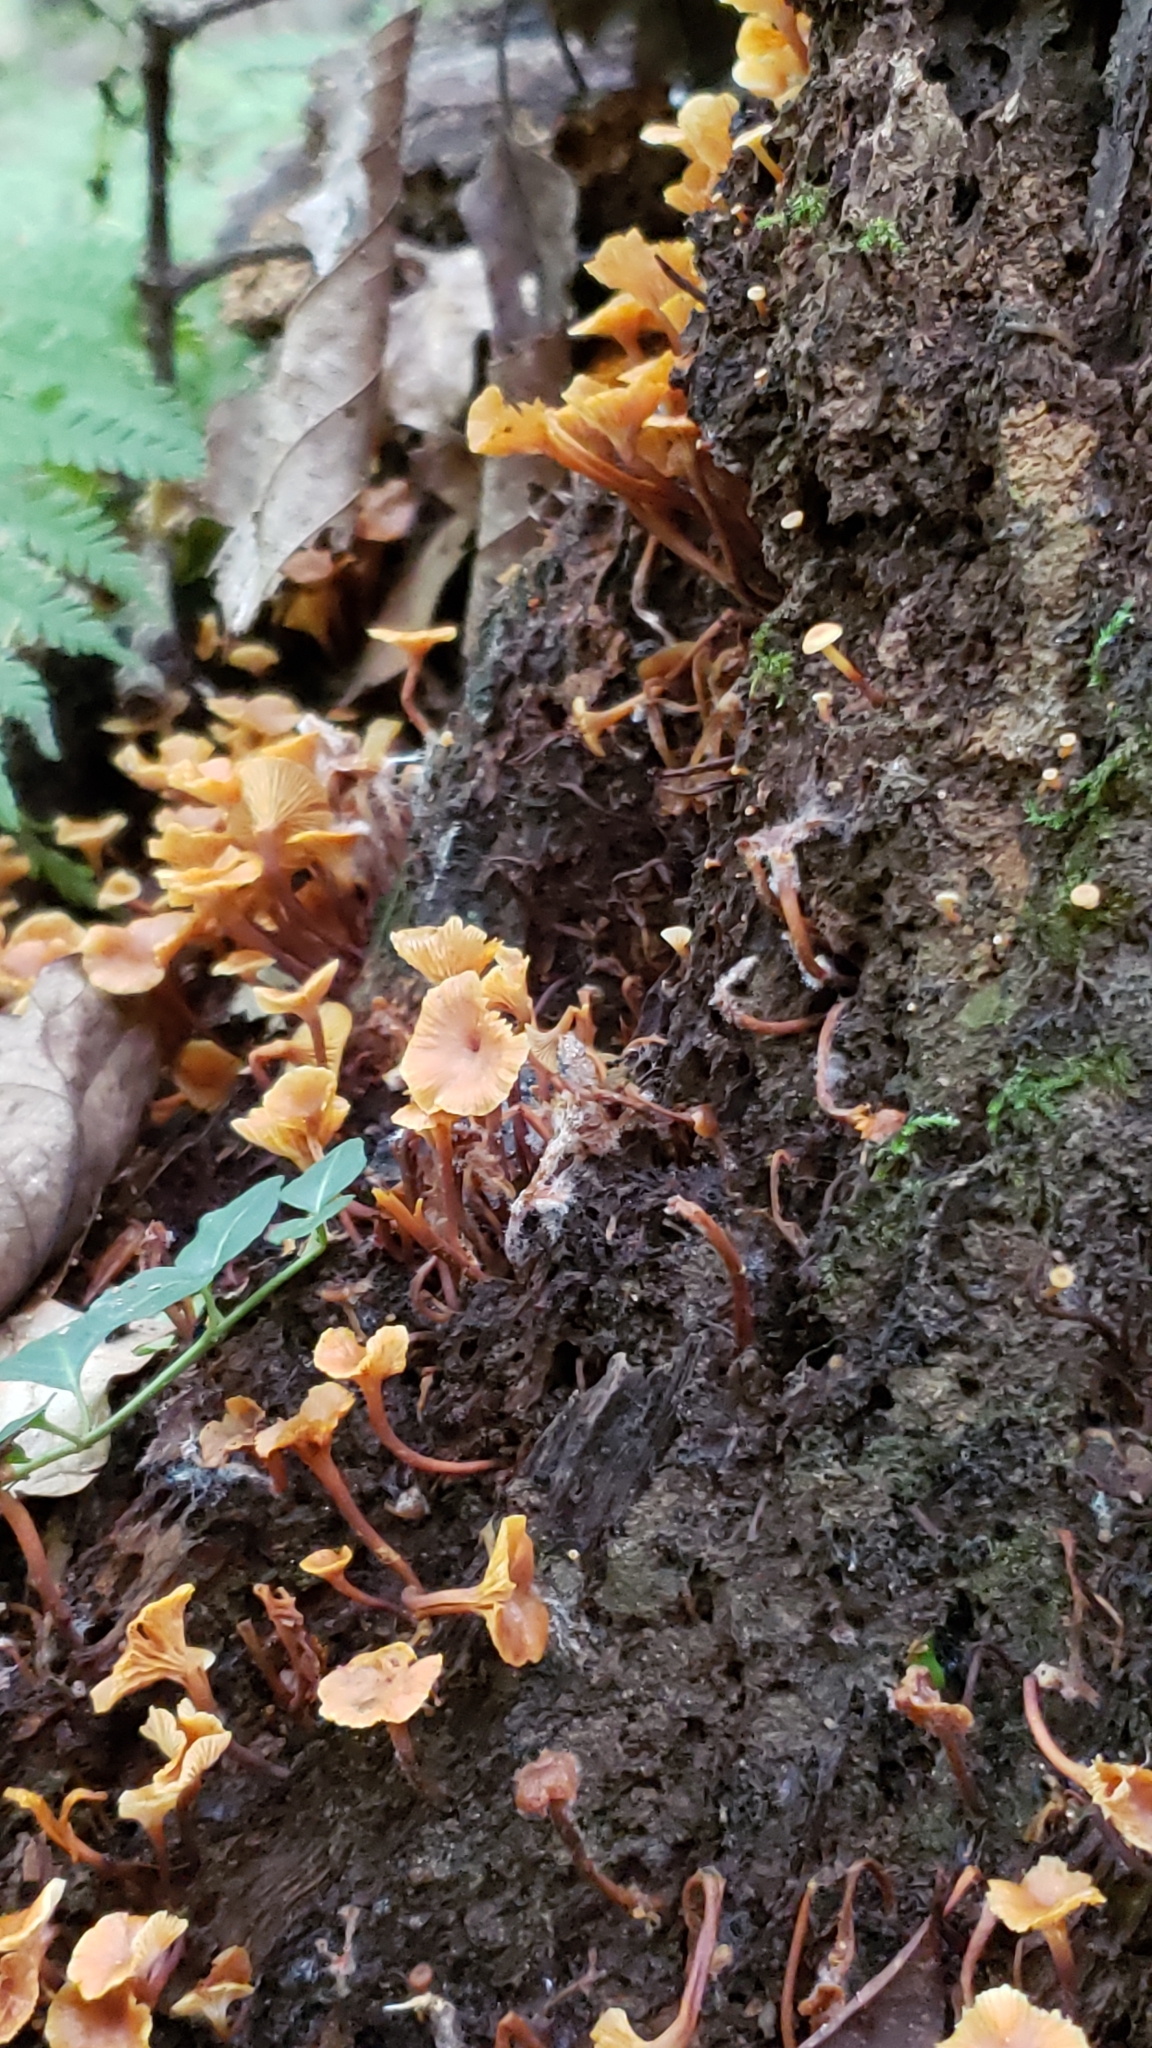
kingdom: Fungi
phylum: Basidiomycota
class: Agaricomycetes
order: Agaricales
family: Mycenaceae
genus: Xeromphalina
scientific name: Xeromphalina campanella
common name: Pinewood gingertail
